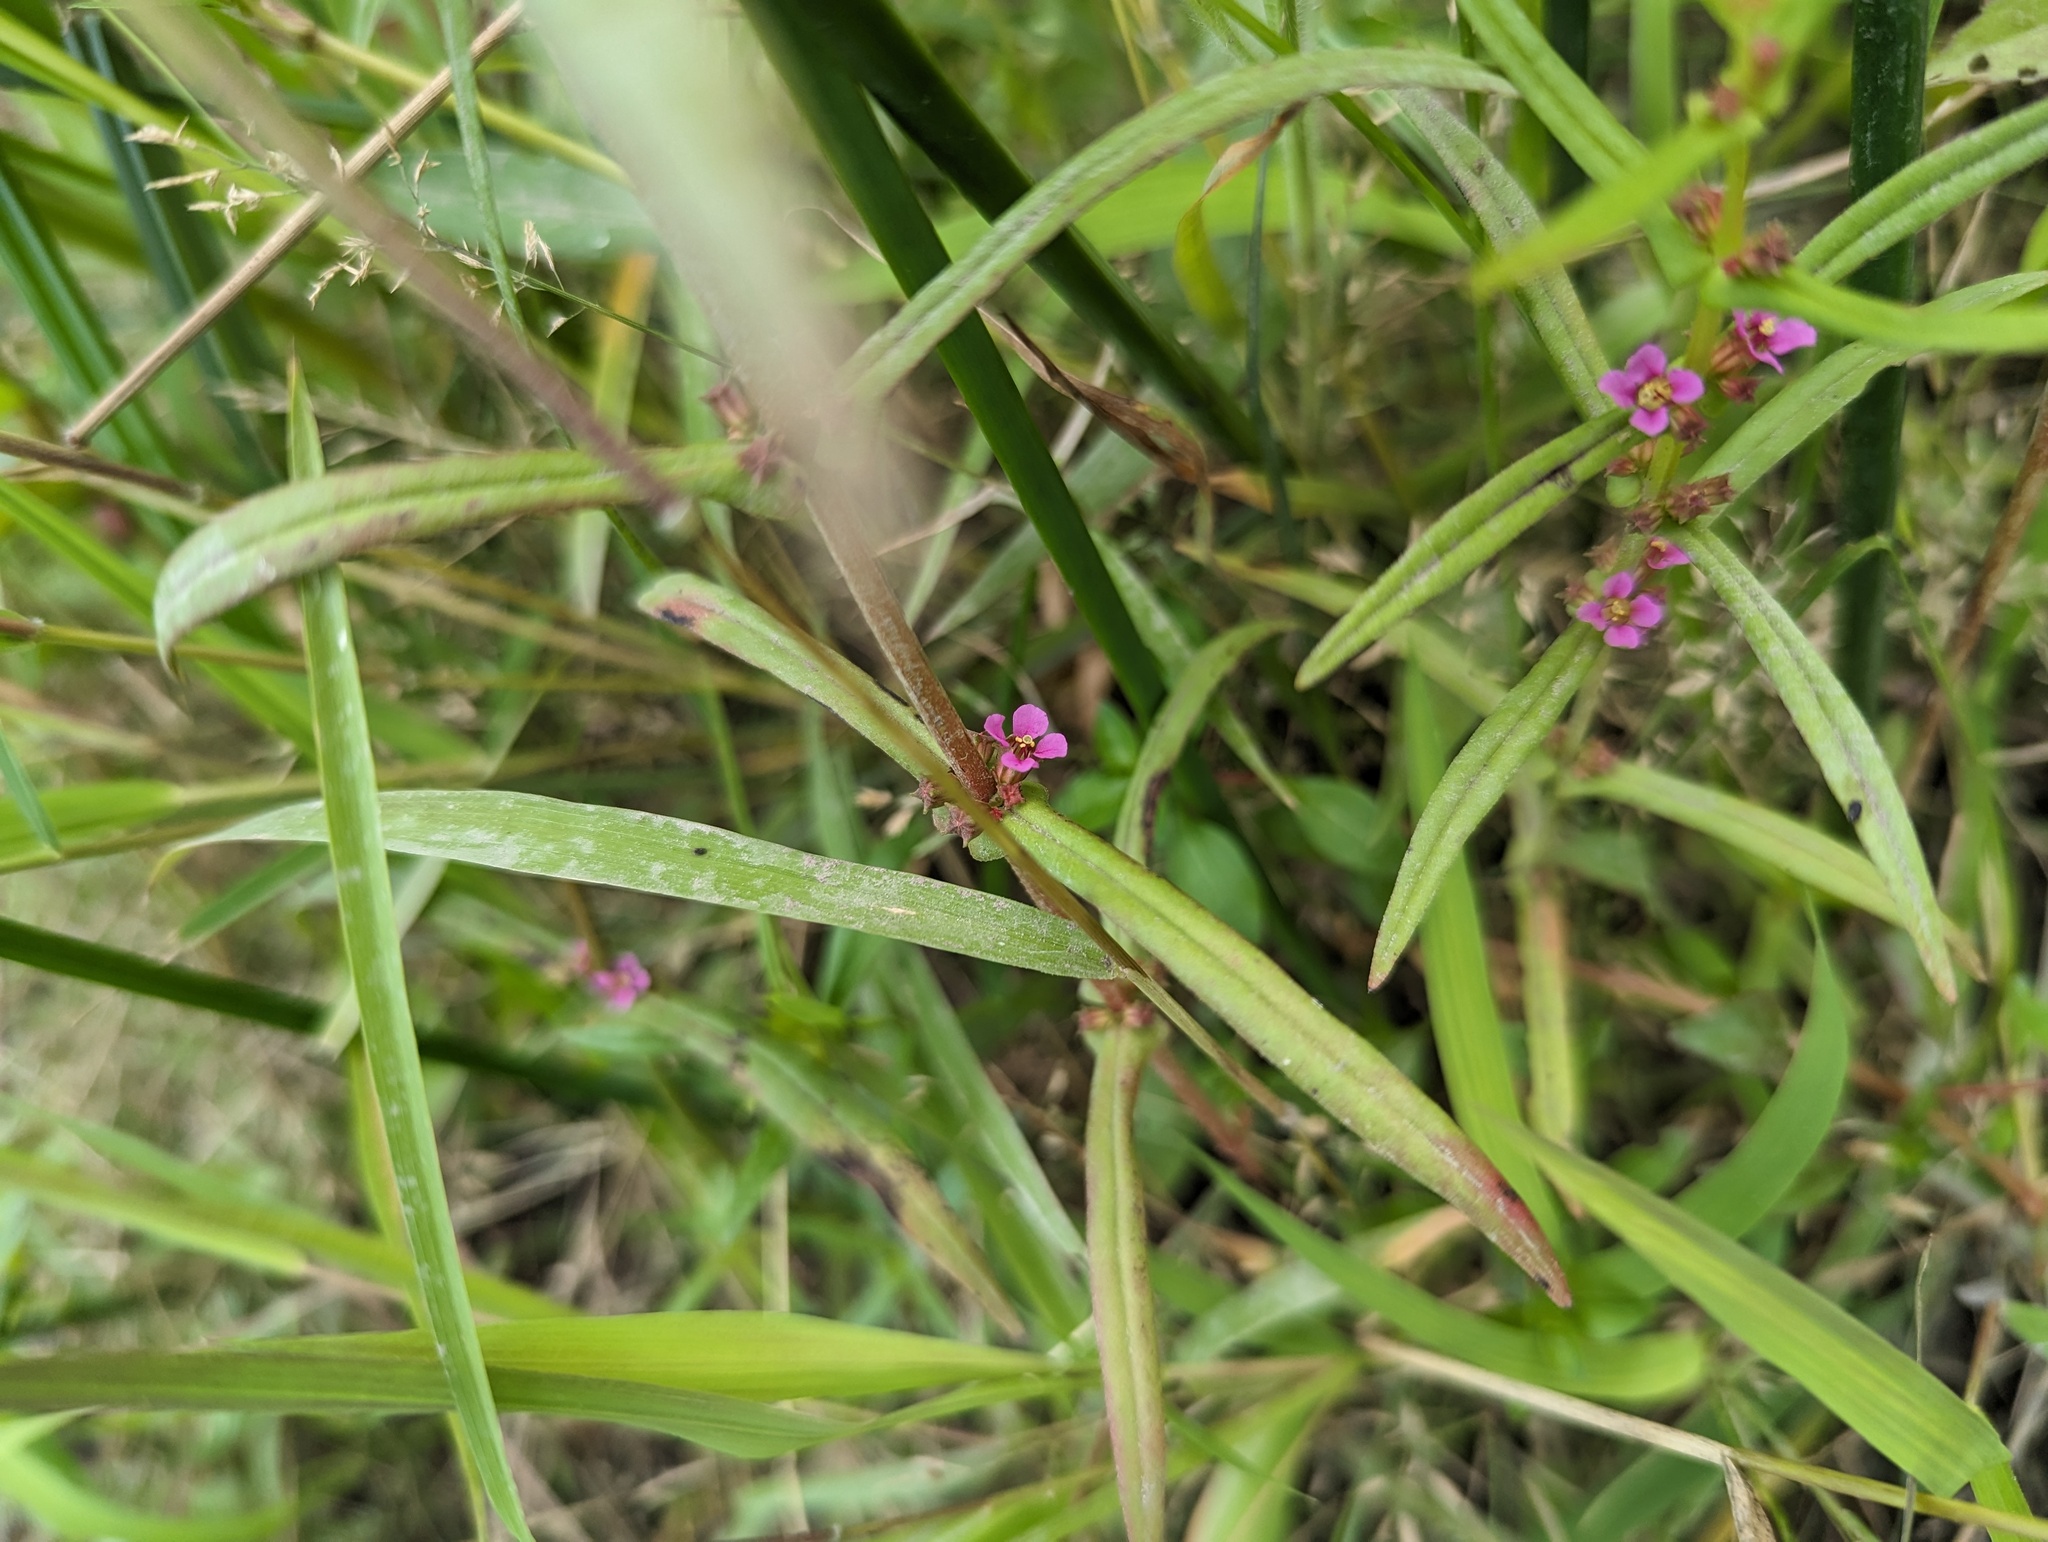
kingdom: Plantae
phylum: Tracheophyta
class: Magnoliopsida
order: Myrtales
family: Lythraceae
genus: Ammannia
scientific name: Ammannia coccinea
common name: Valley redstem
